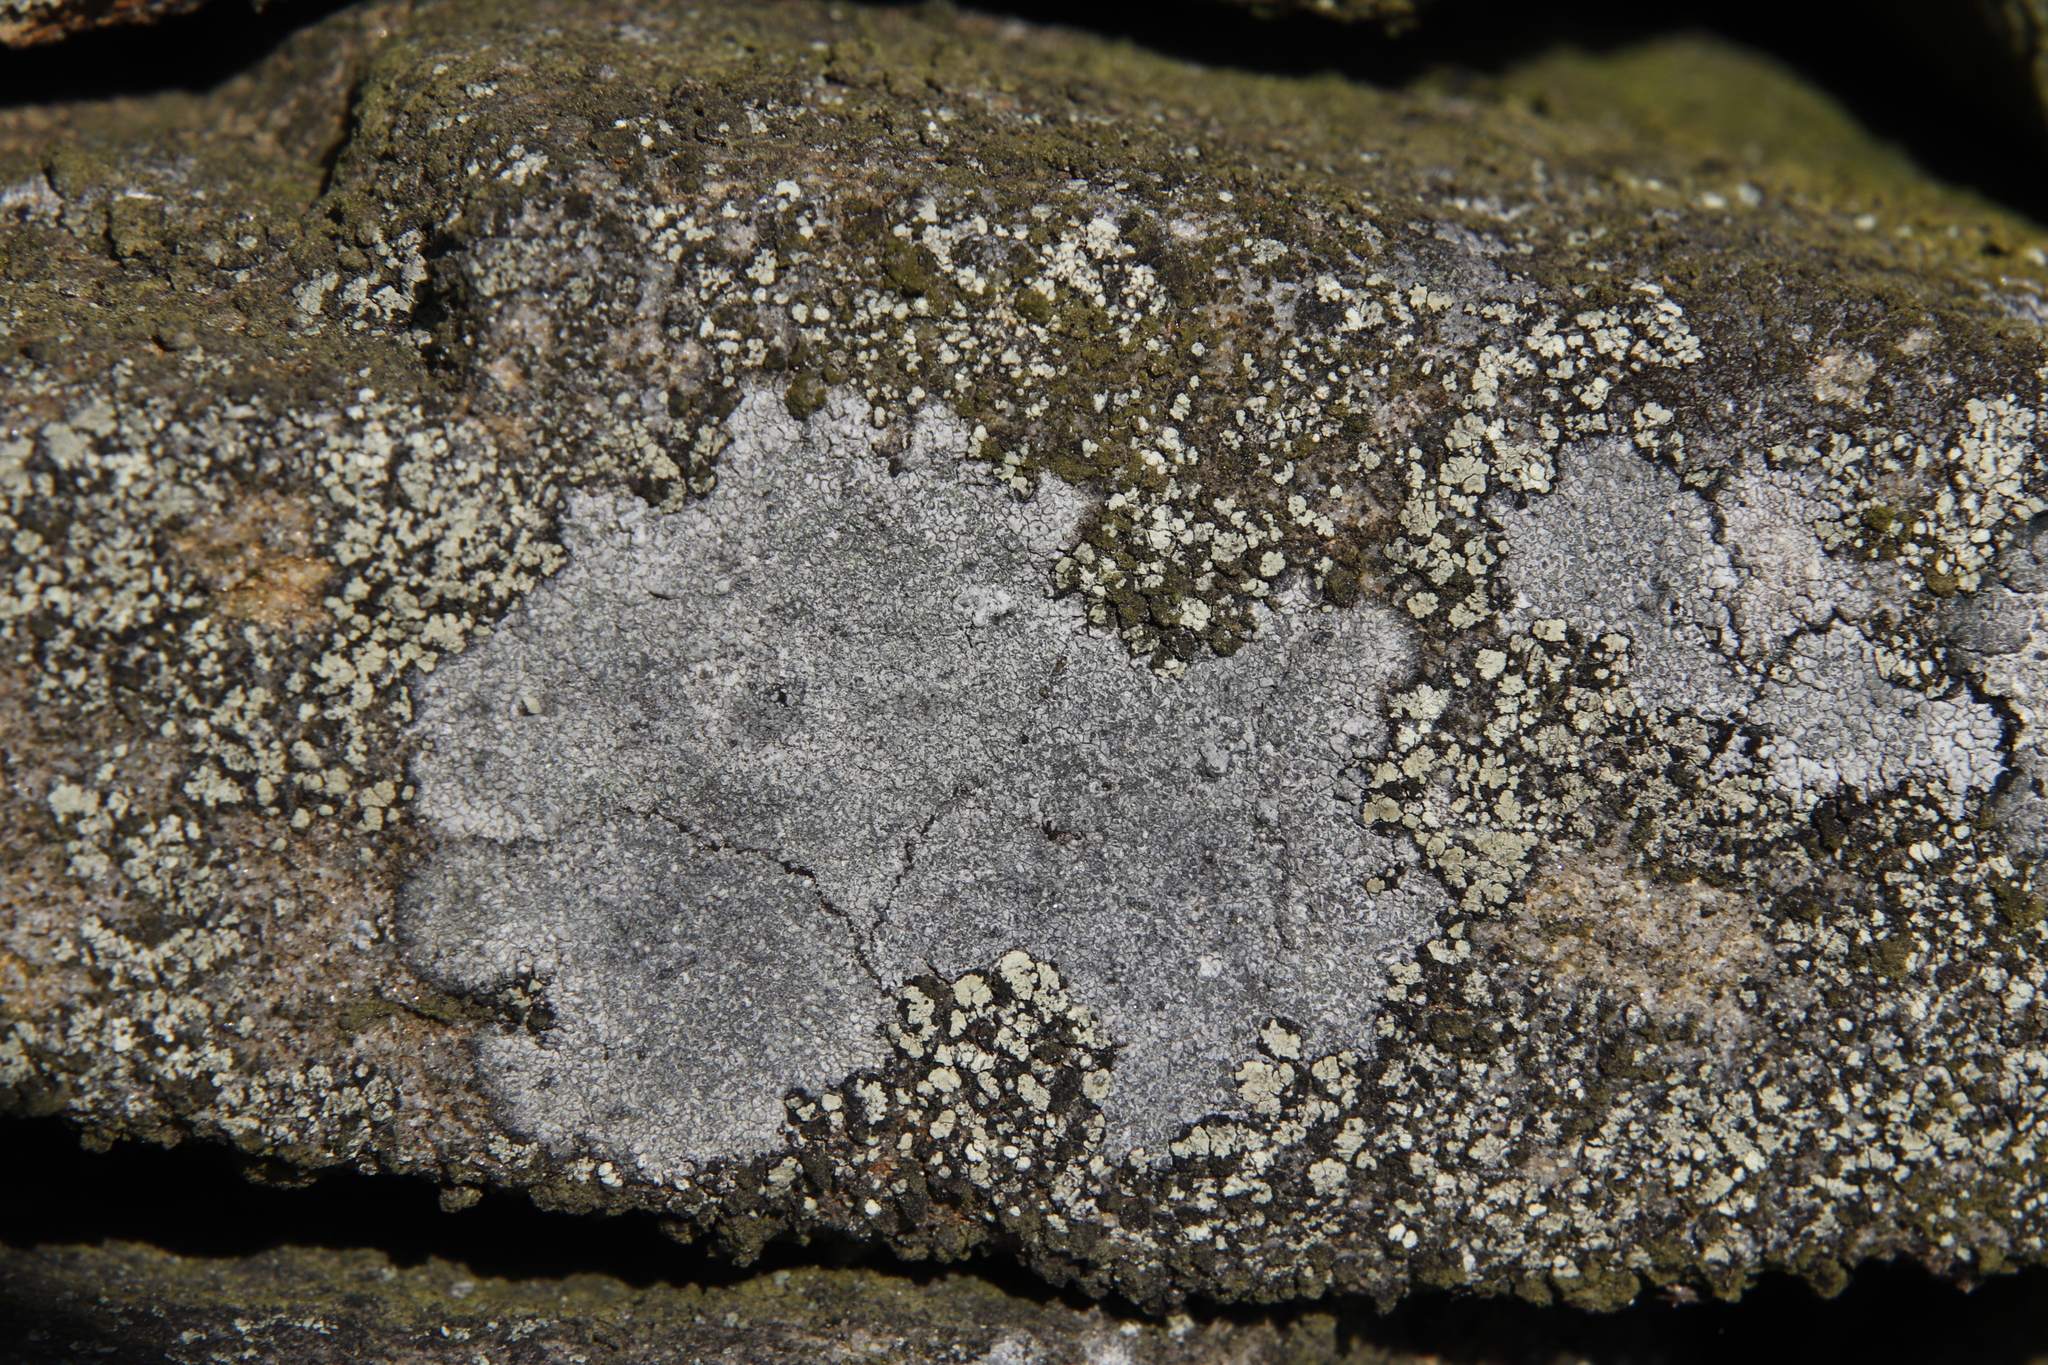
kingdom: Fungi
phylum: Ascomycota
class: Lecanoromycetes
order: Lecideales
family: Lecideaceae
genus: Porpidia
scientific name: Porpidia tuberculosa
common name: Boulder lichen
